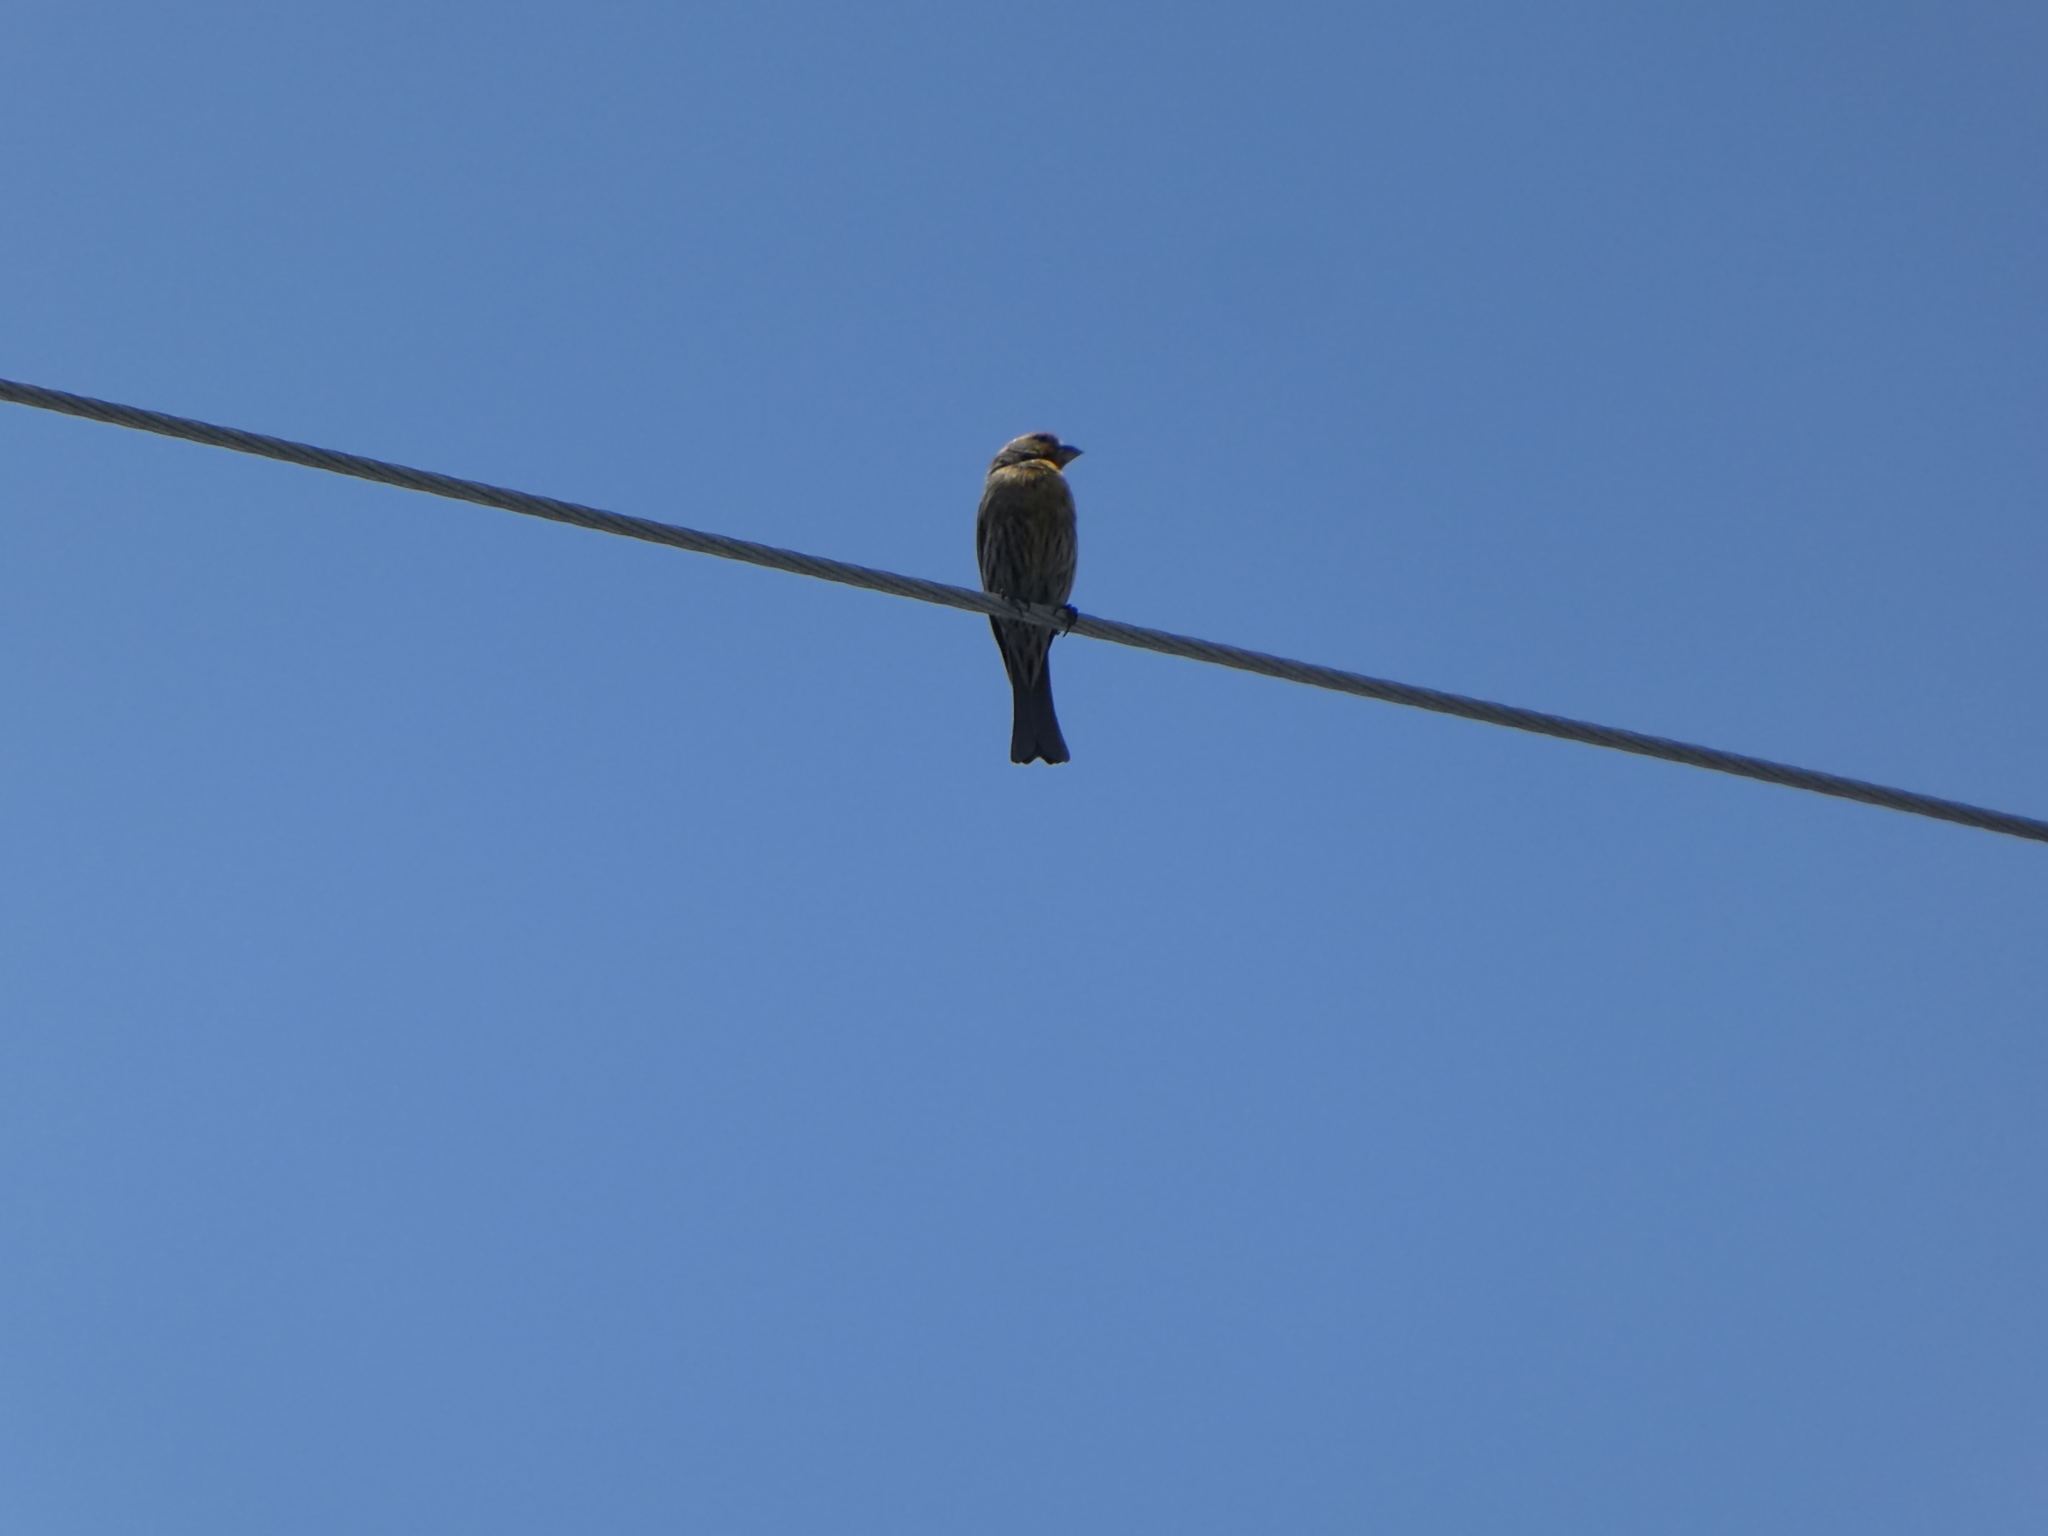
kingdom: Animalia
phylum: Chordata
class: Aves
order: Passeriformes
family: Fringillidae
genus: Haemorhous
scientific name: Haemorhous mexicanus
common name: House finch
